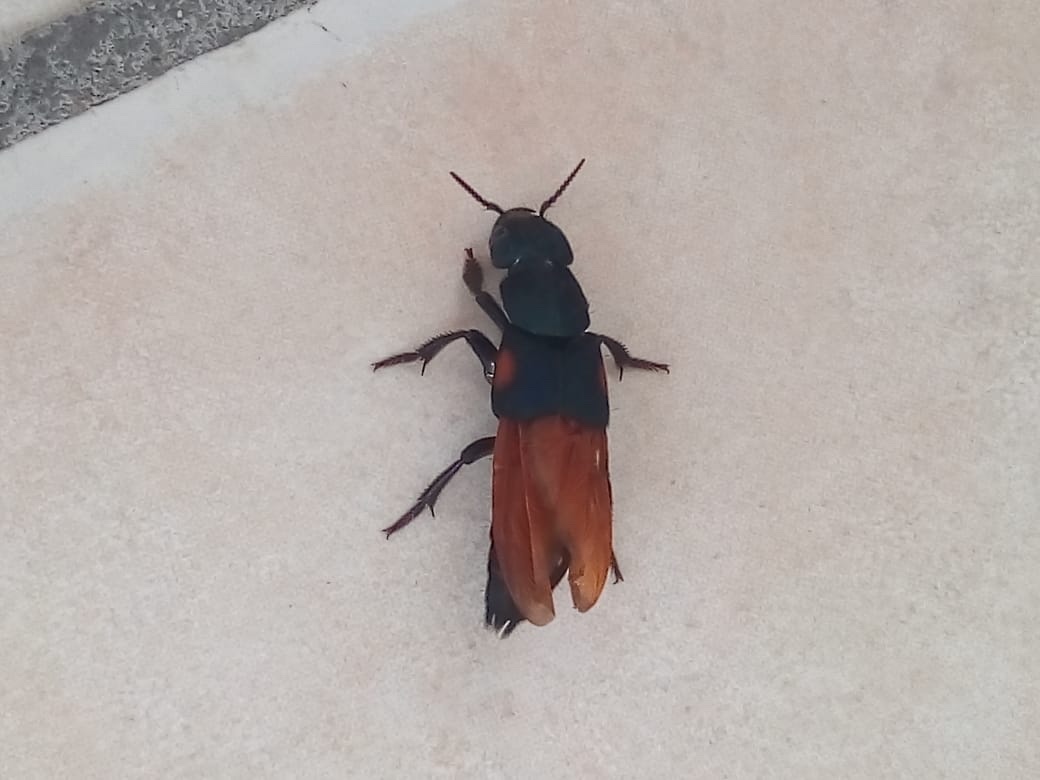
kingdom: Animalia
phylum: Arthropoda
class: Insecta
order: Coleoptera
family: Staphylinidae
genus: Platydracus
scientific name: Platydracus fulvomaculatus
